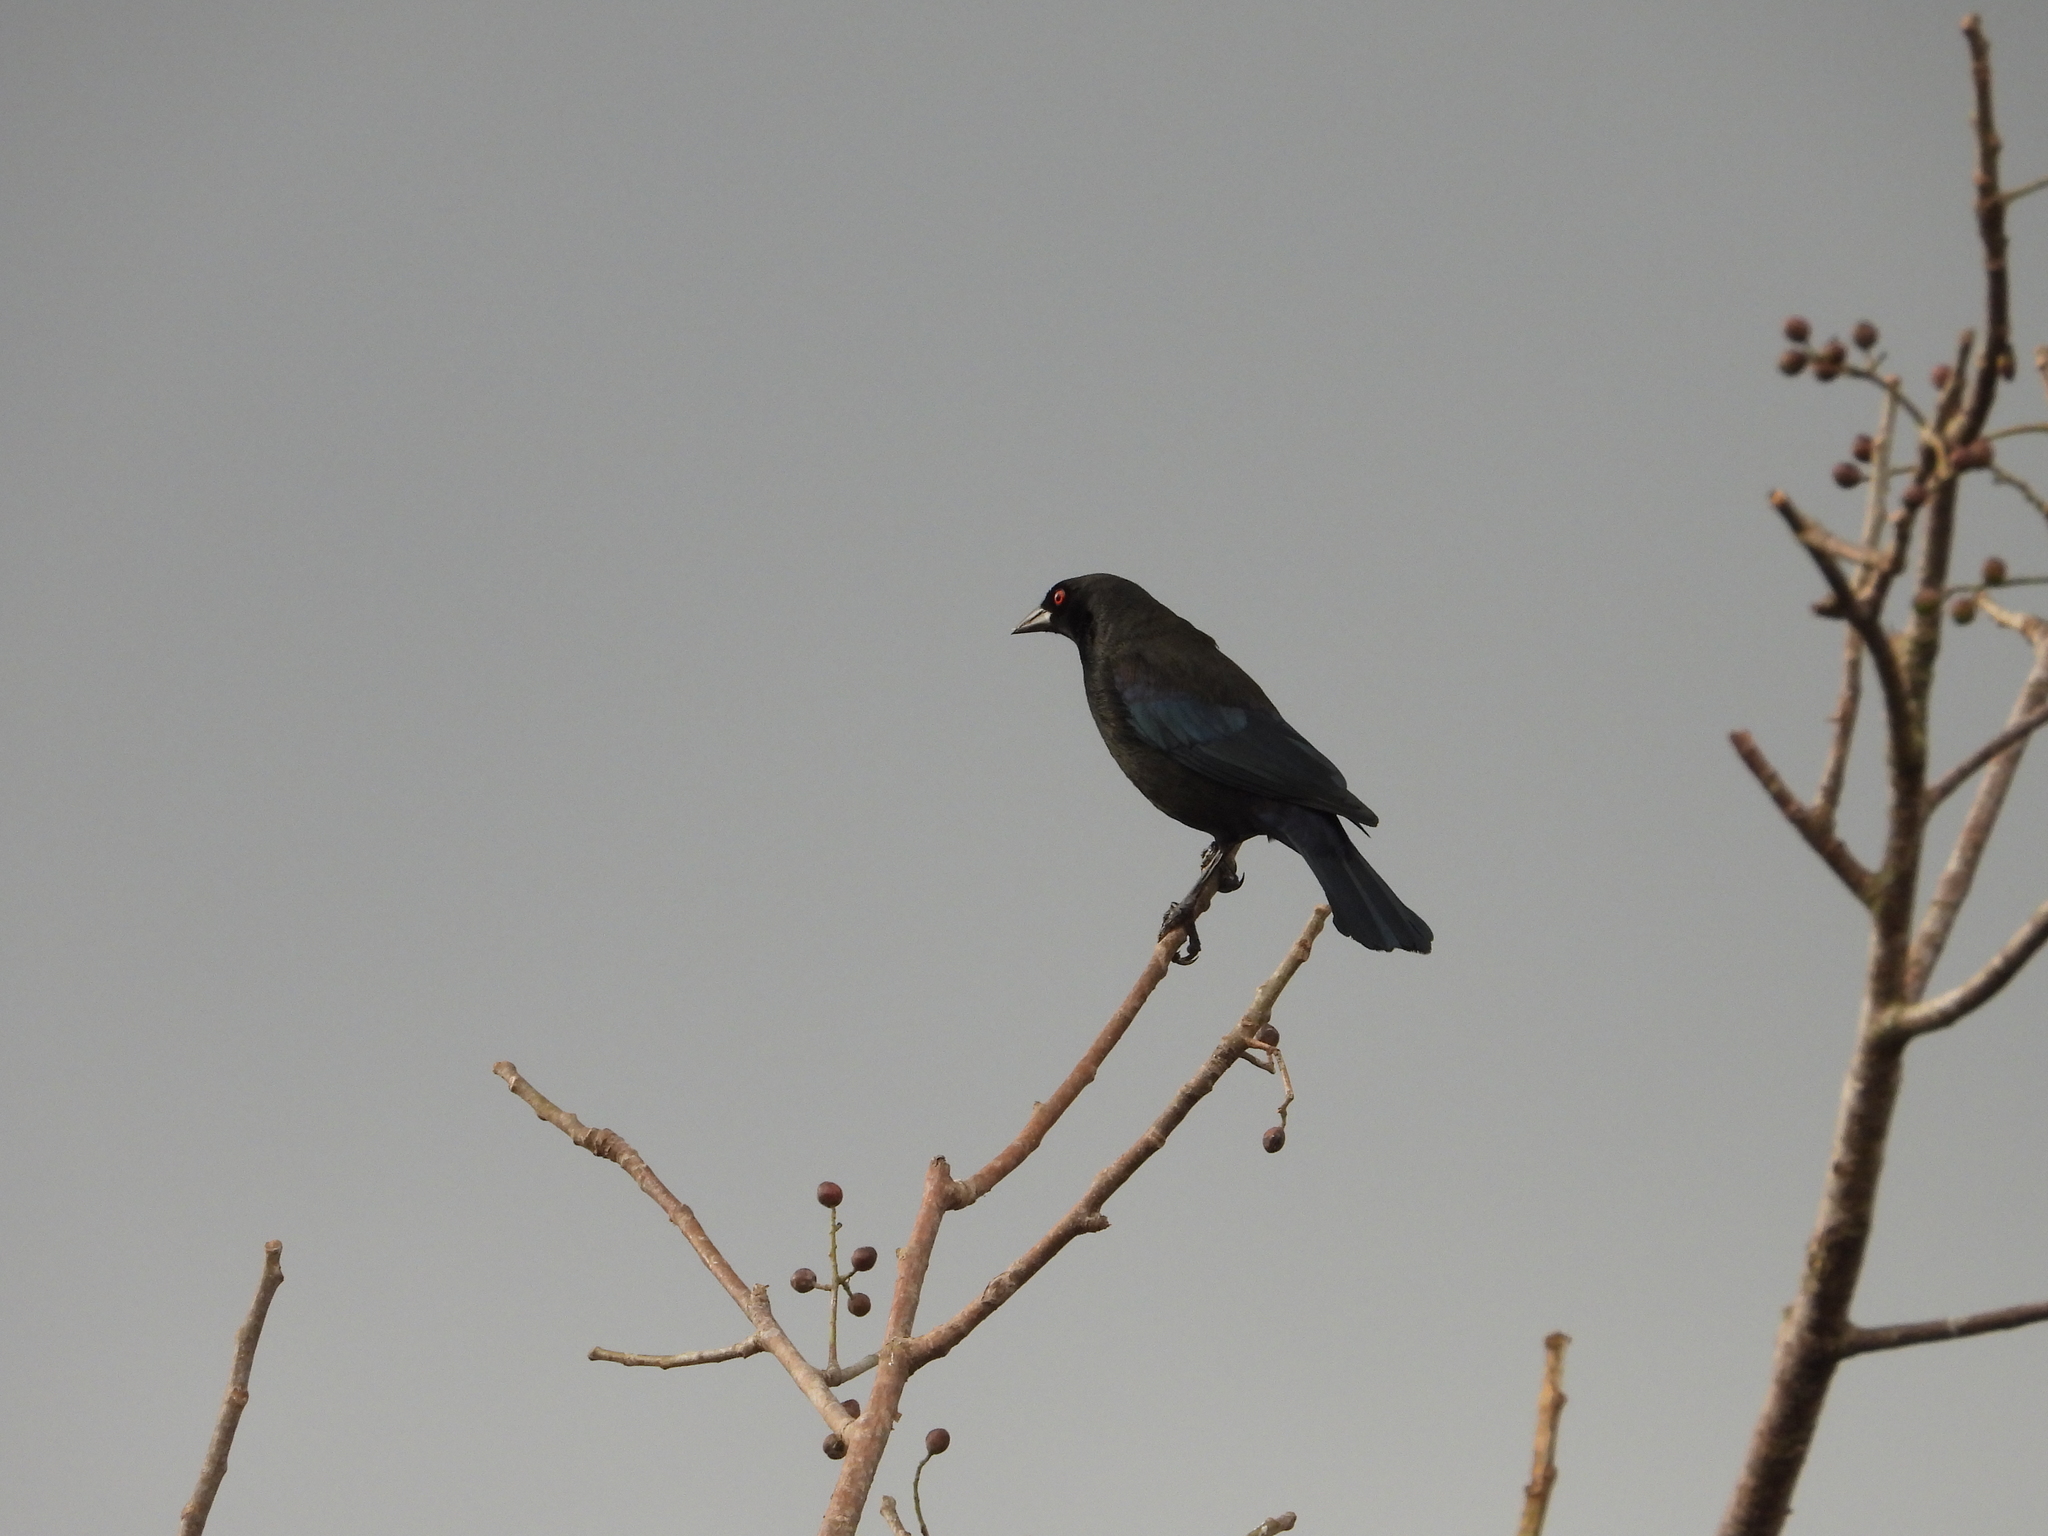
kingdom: Animalia
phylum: Chordata
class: Aves
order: Passeriformes
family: Icteridae
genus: Molothrus
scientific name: Molothrus aeneus
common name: Bronzed cowbird
